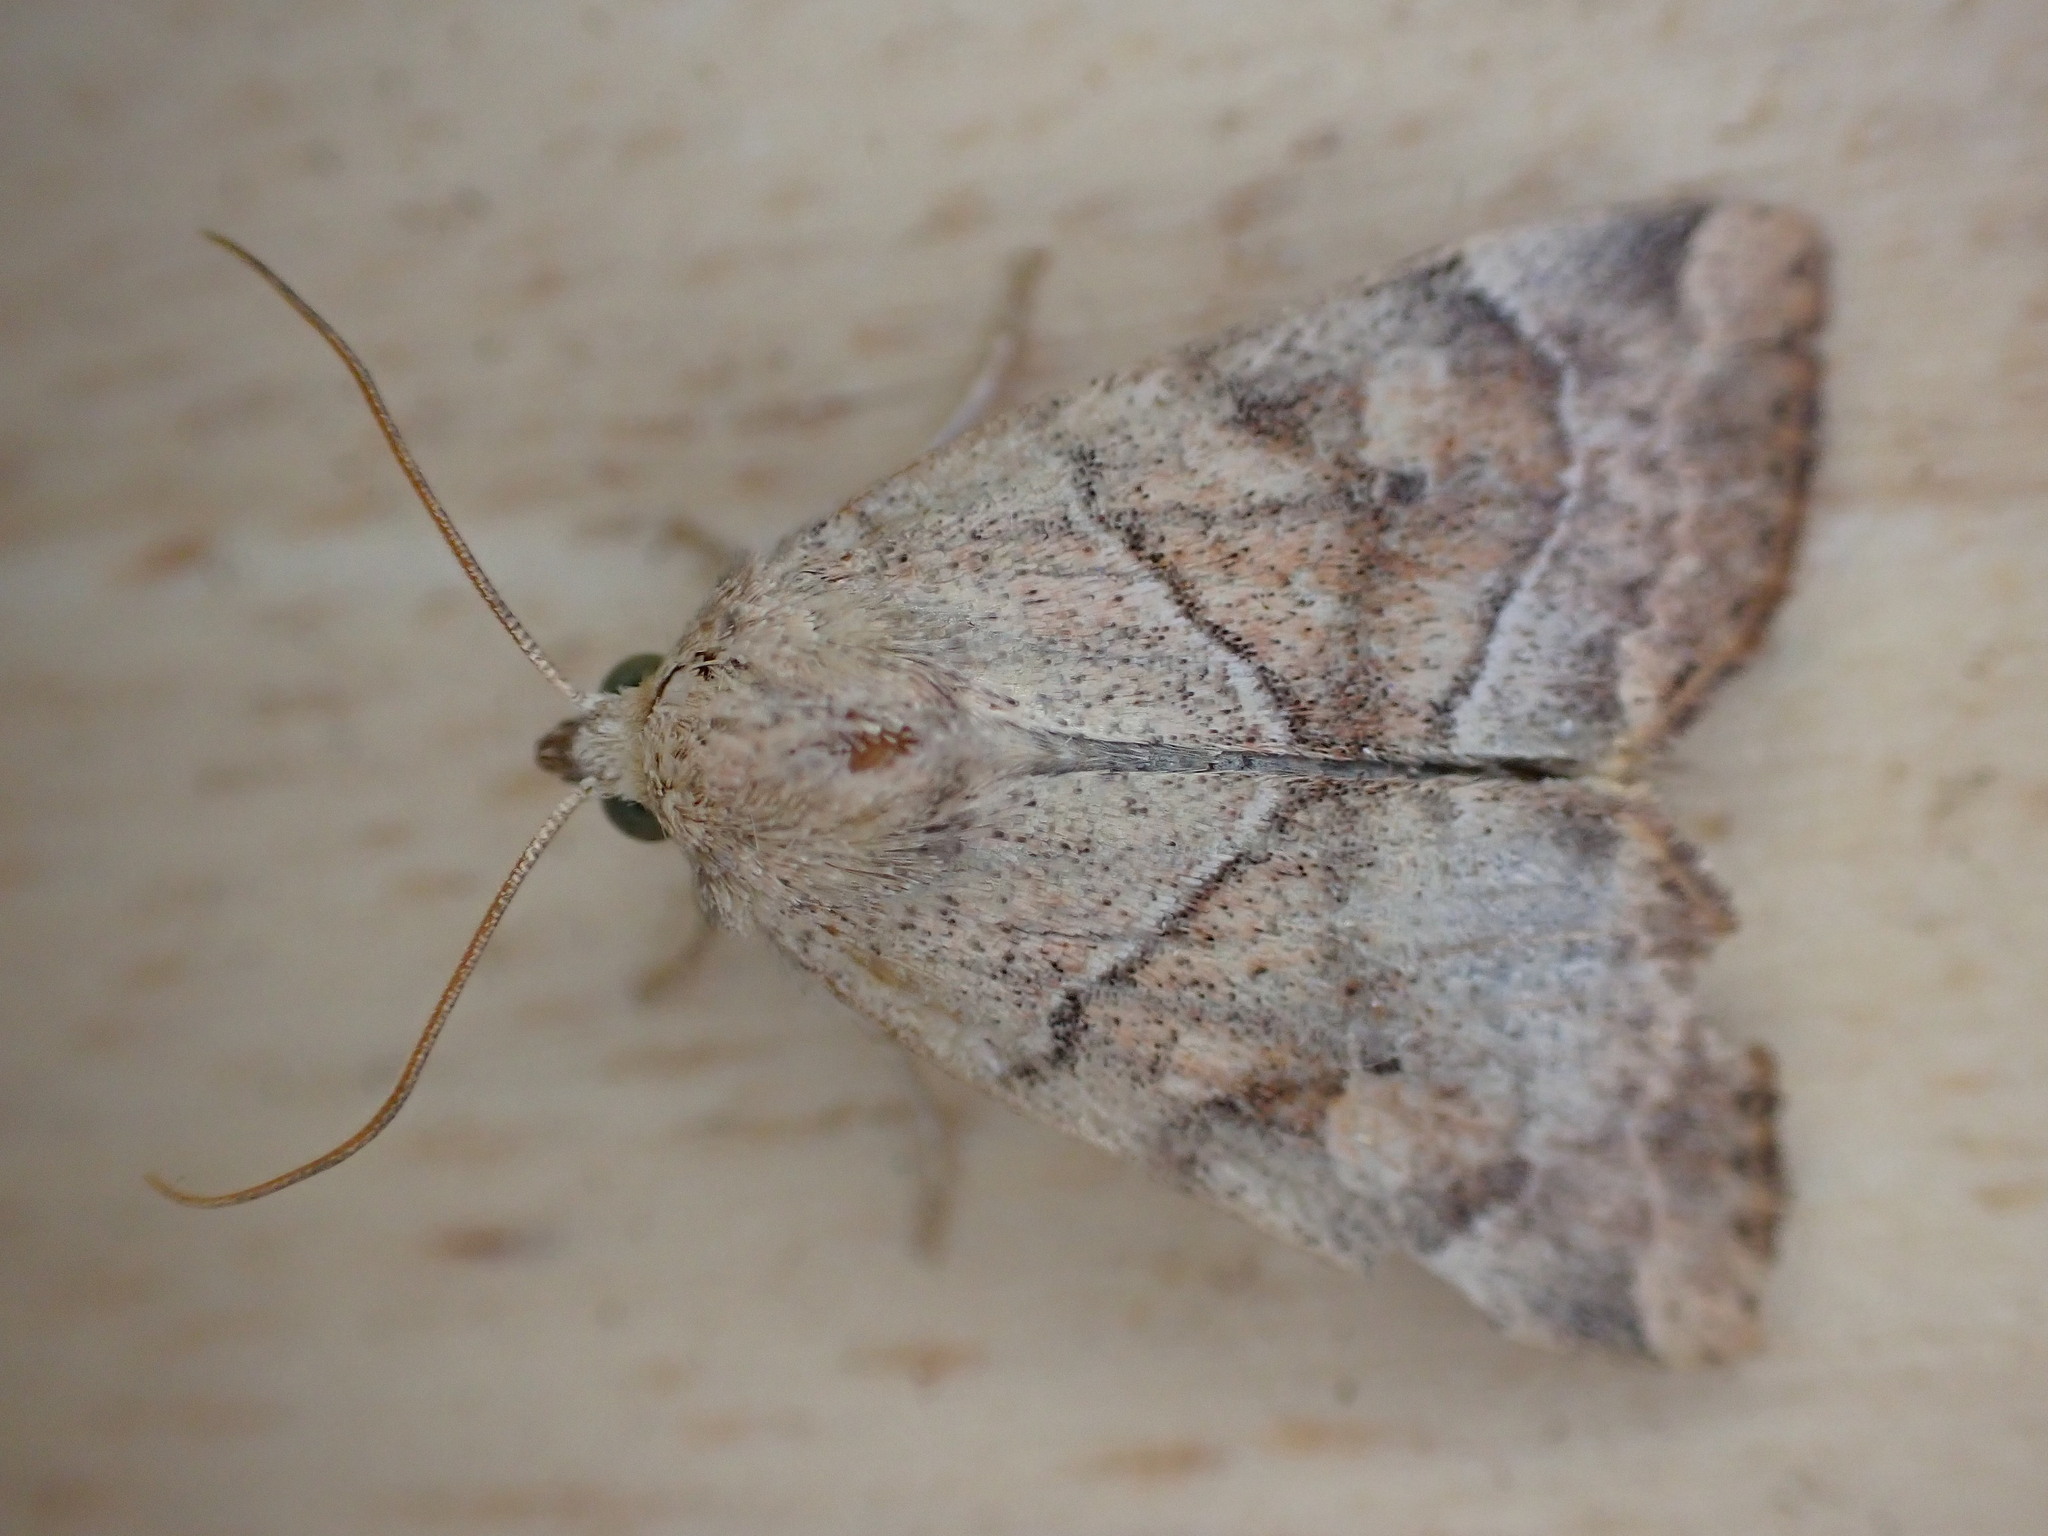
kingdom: Animalia
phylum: Arthropoda
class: Insecta
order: Lepidoptera
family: Noctuidae
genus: Cosmia
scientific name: Cosmia trapezina
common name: Dun-bar
